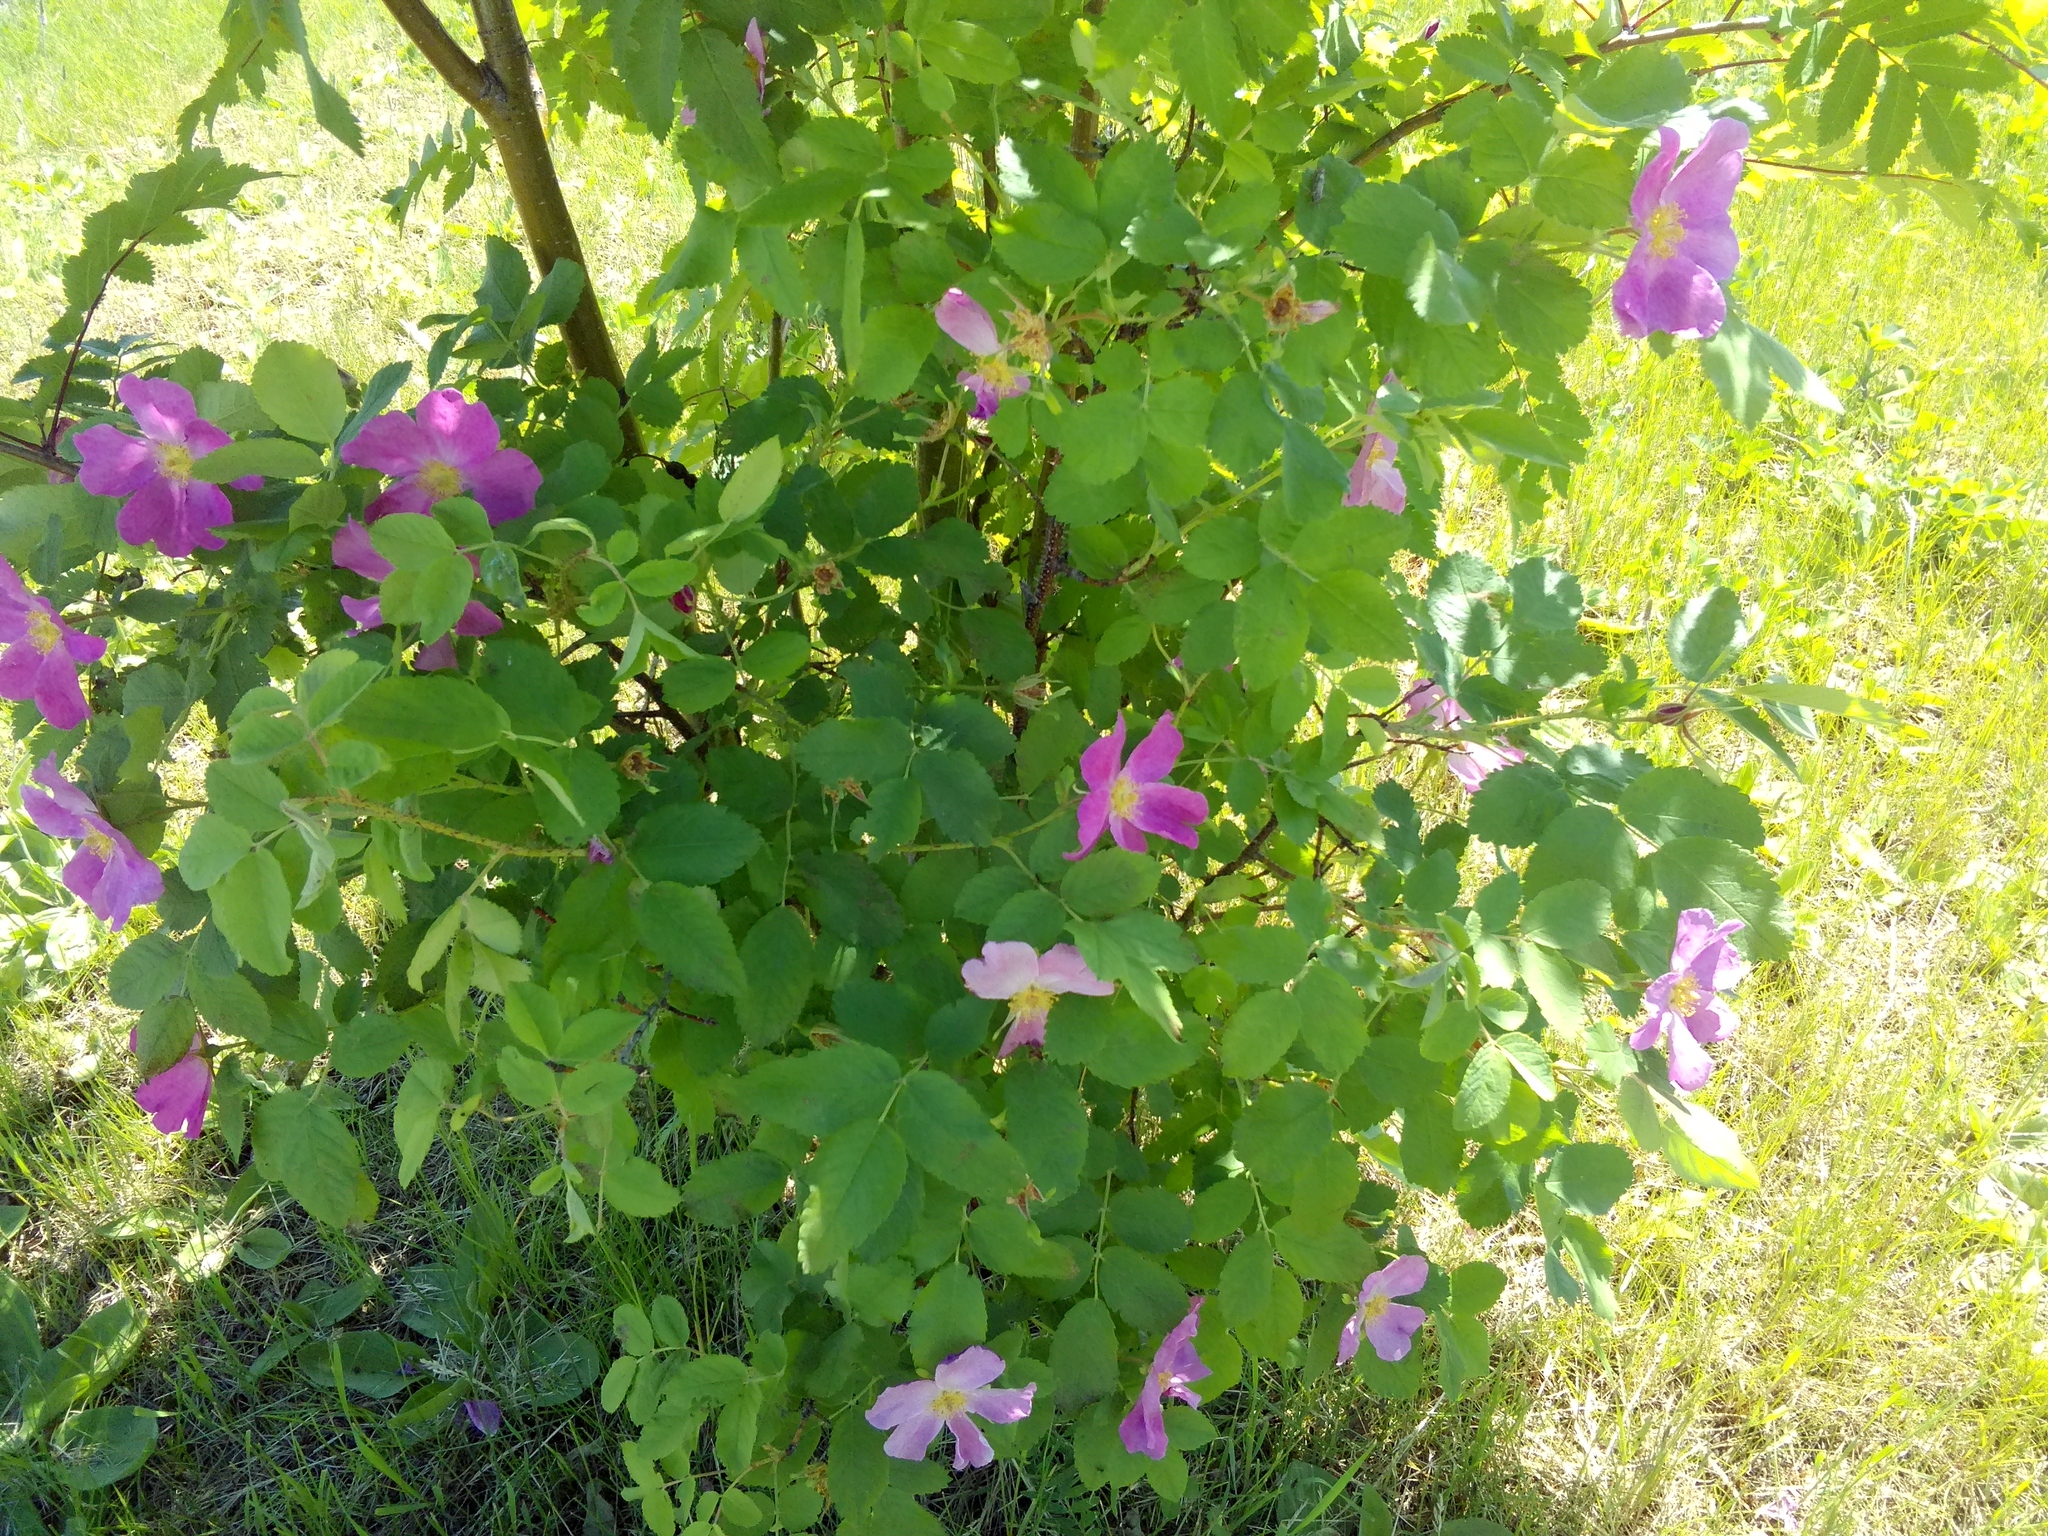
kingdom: Plantae
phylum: Tracheophyta
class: Magnoliopsida
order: Rosales
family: Rosaceae
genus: Rosa
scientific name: Rosa majalis
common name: Cinnamon rose
